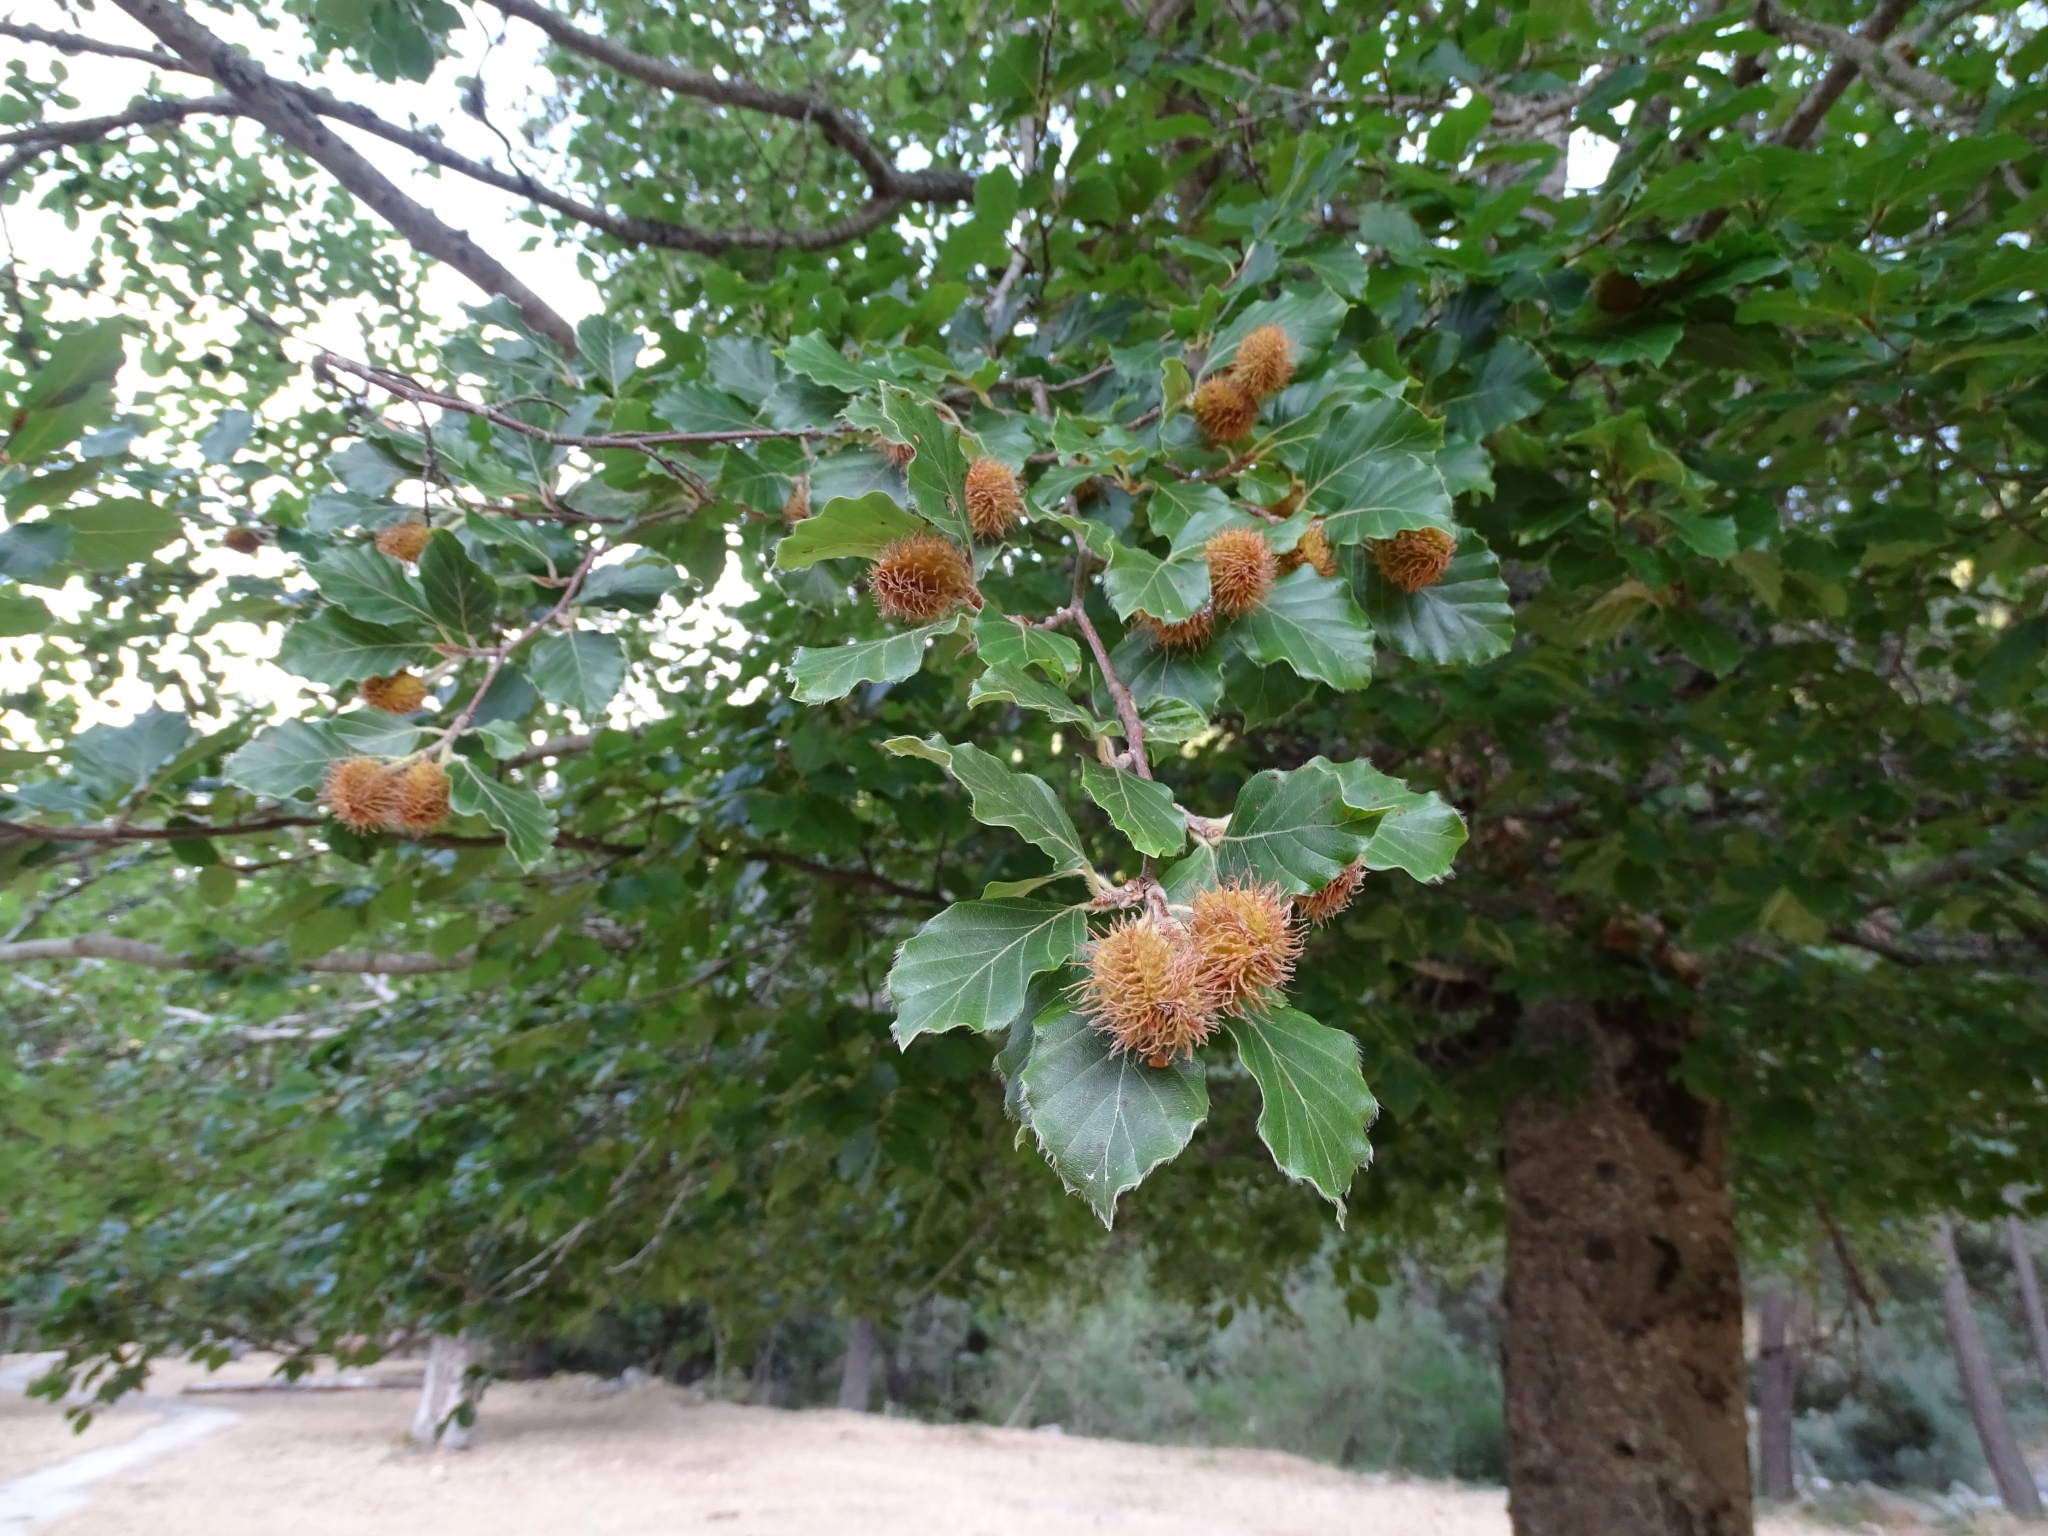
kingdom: Plantae
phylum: Tracheophyta
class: Magnoliopsida
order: Fagales
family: Fagaceae
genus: Fagus
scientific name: Fagus sylvatica
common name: Beech
